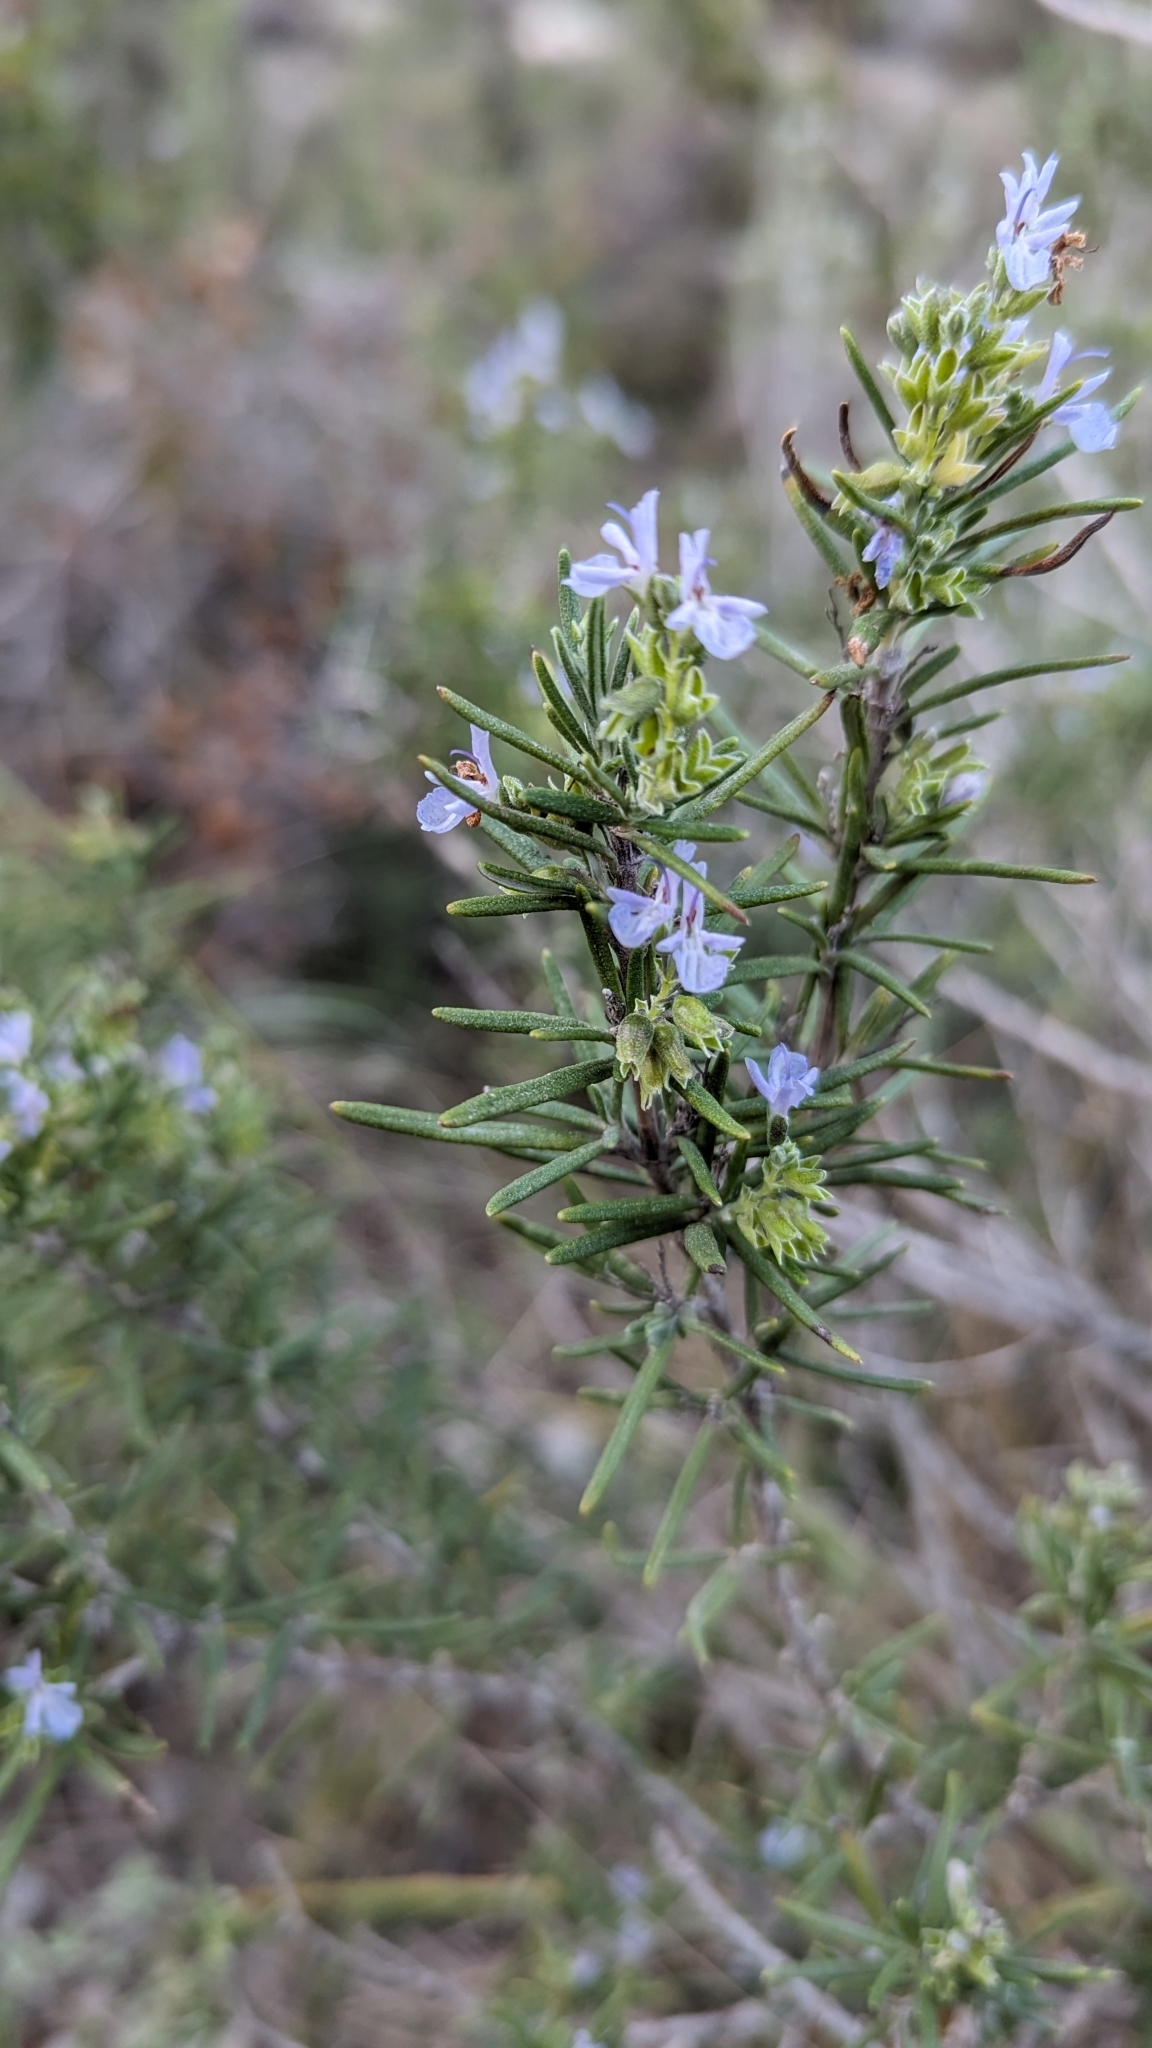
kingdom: Plantae
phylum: Tracheophyta
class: Magnoliopsida
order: Lamiales
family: Lamiaceae
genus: Salvia
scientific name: Salvia rosmarinus
